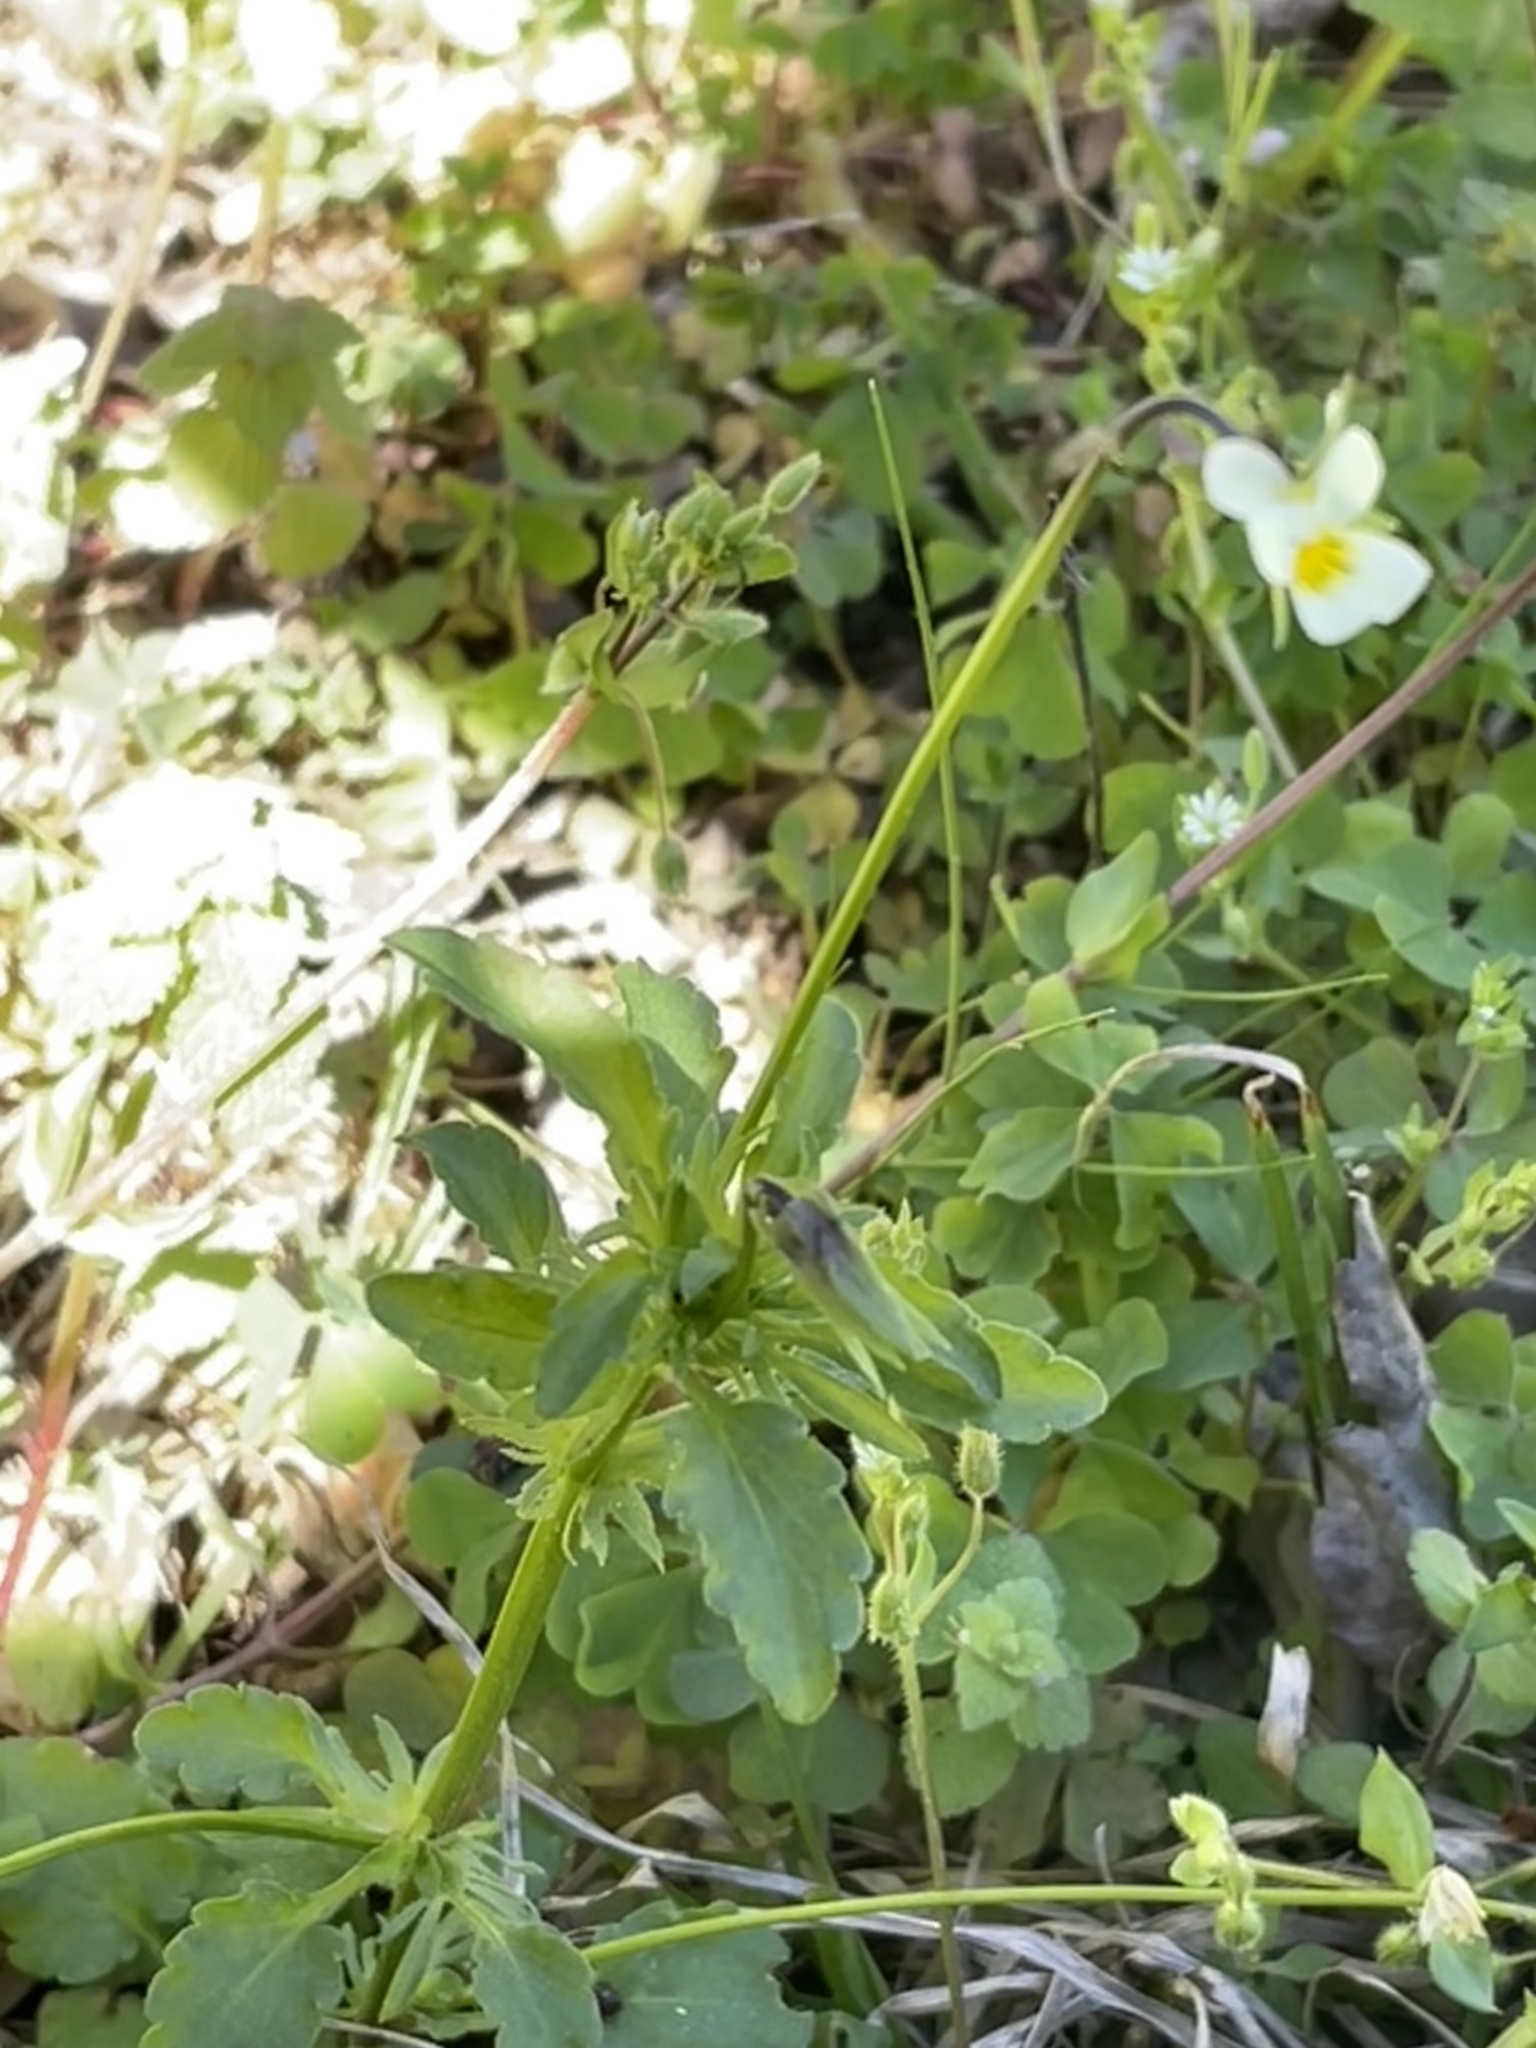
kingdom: Plantae
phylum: Tracheophyta
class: Magnoliopsida
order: Malpighiales
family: Violaceae
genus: Viola
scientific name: Viola arvensis
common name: Field pansy
